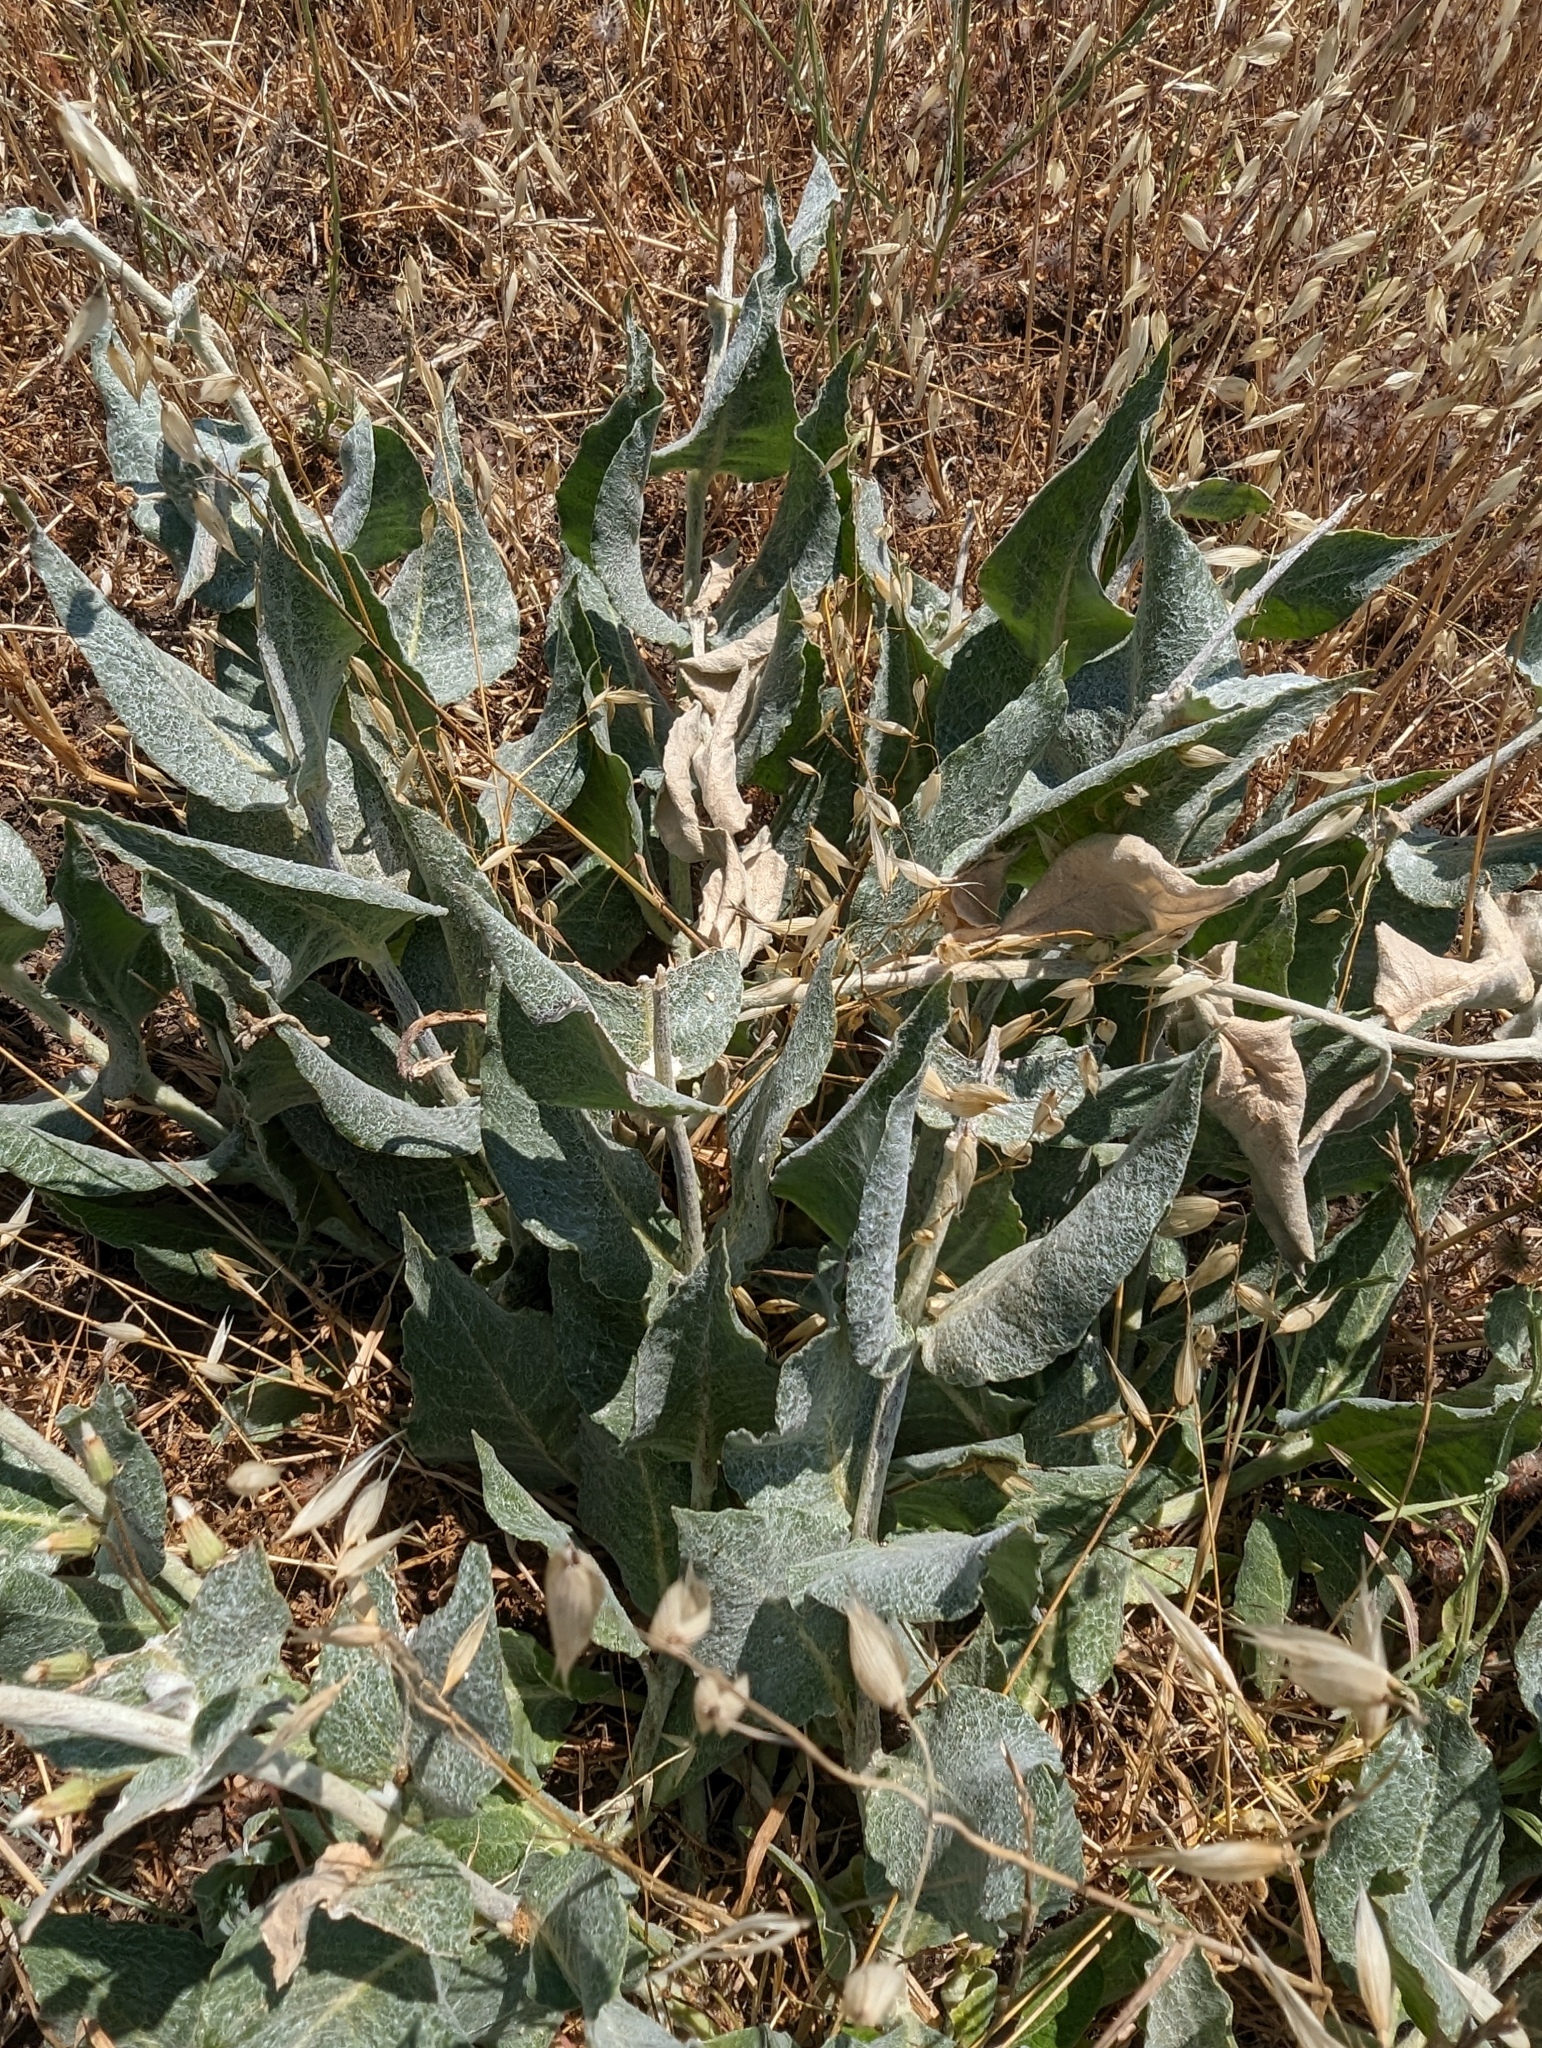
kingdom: Plantae
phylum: Tracheophyta
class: Magnoliopsida
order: Gentianales
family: Apocynaceae
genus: Asclepias
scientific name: Asclepias californica
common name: California milkweed
